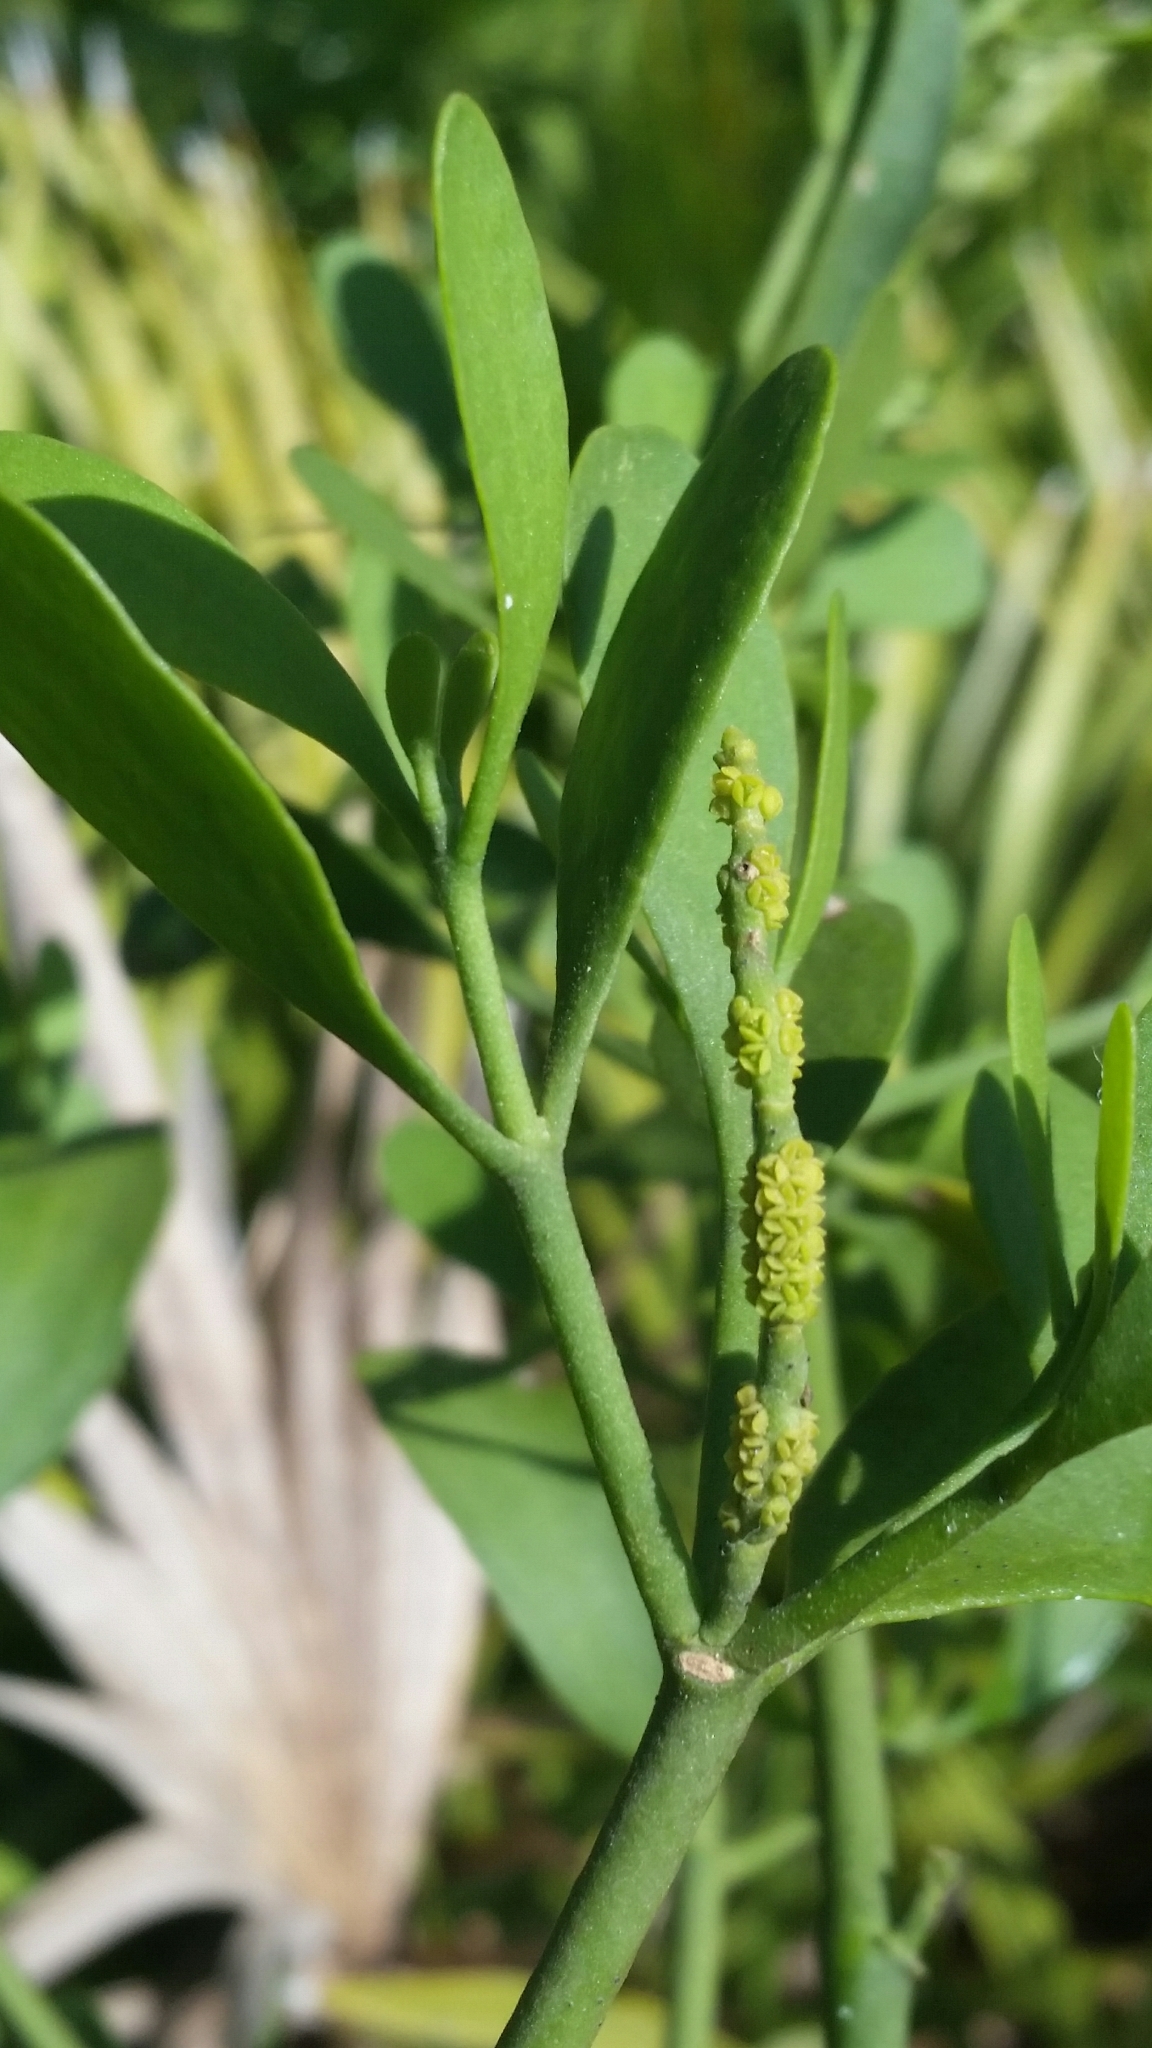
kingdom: Plantae
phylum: Tracheophyta
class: Magnoliopsida
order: Santalales
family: Viscaceae
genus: Phoradendron
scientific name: Phoradendron leucarpum
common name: Pacific mistletoe
